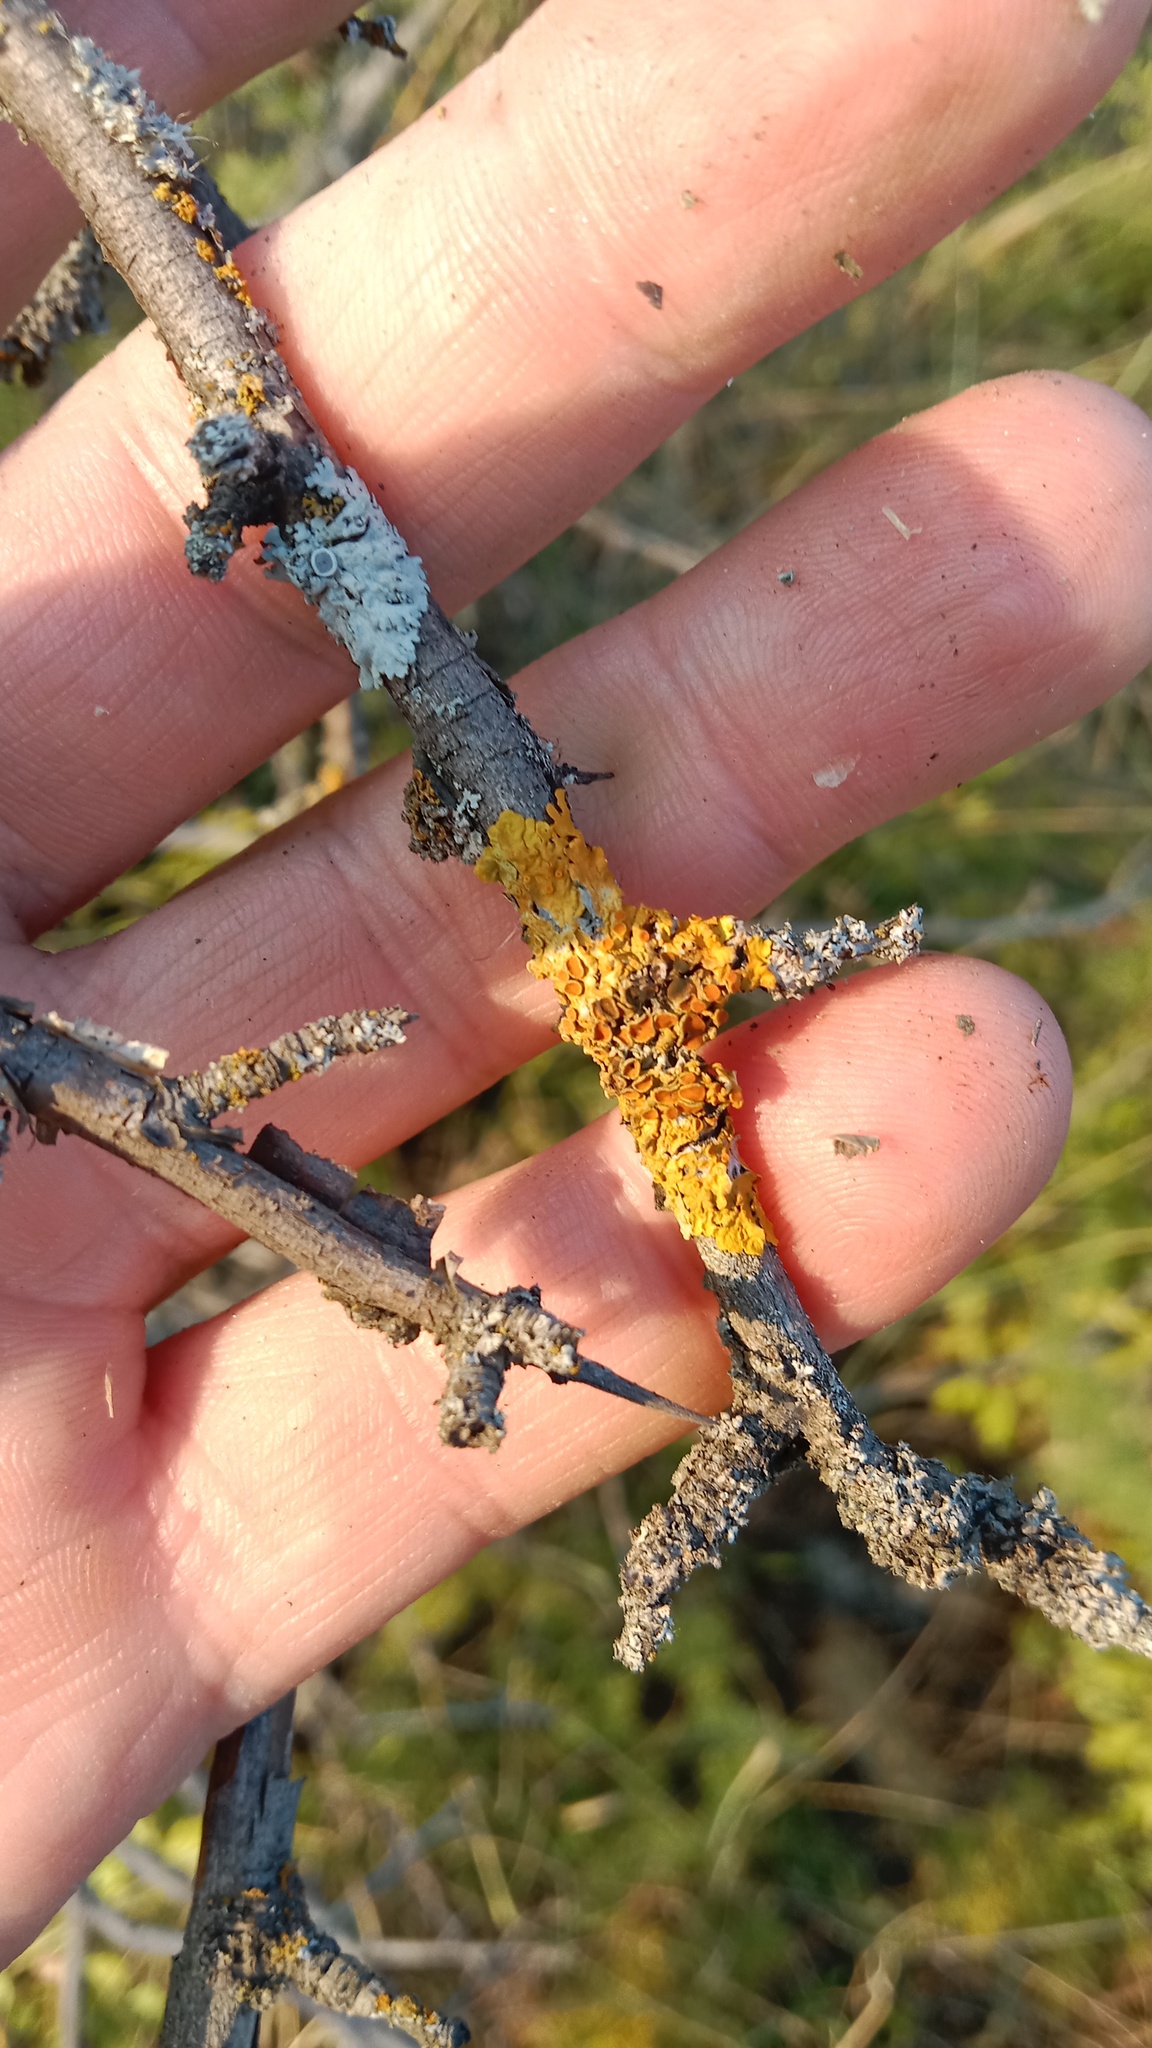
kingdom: Fungi
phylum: Ascomycota
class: Lecanoromycetes
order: Teloschistales
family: Teloschistaceae
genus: Xanthoria
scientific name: Xanthoria parietina
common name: Common orange lichen
